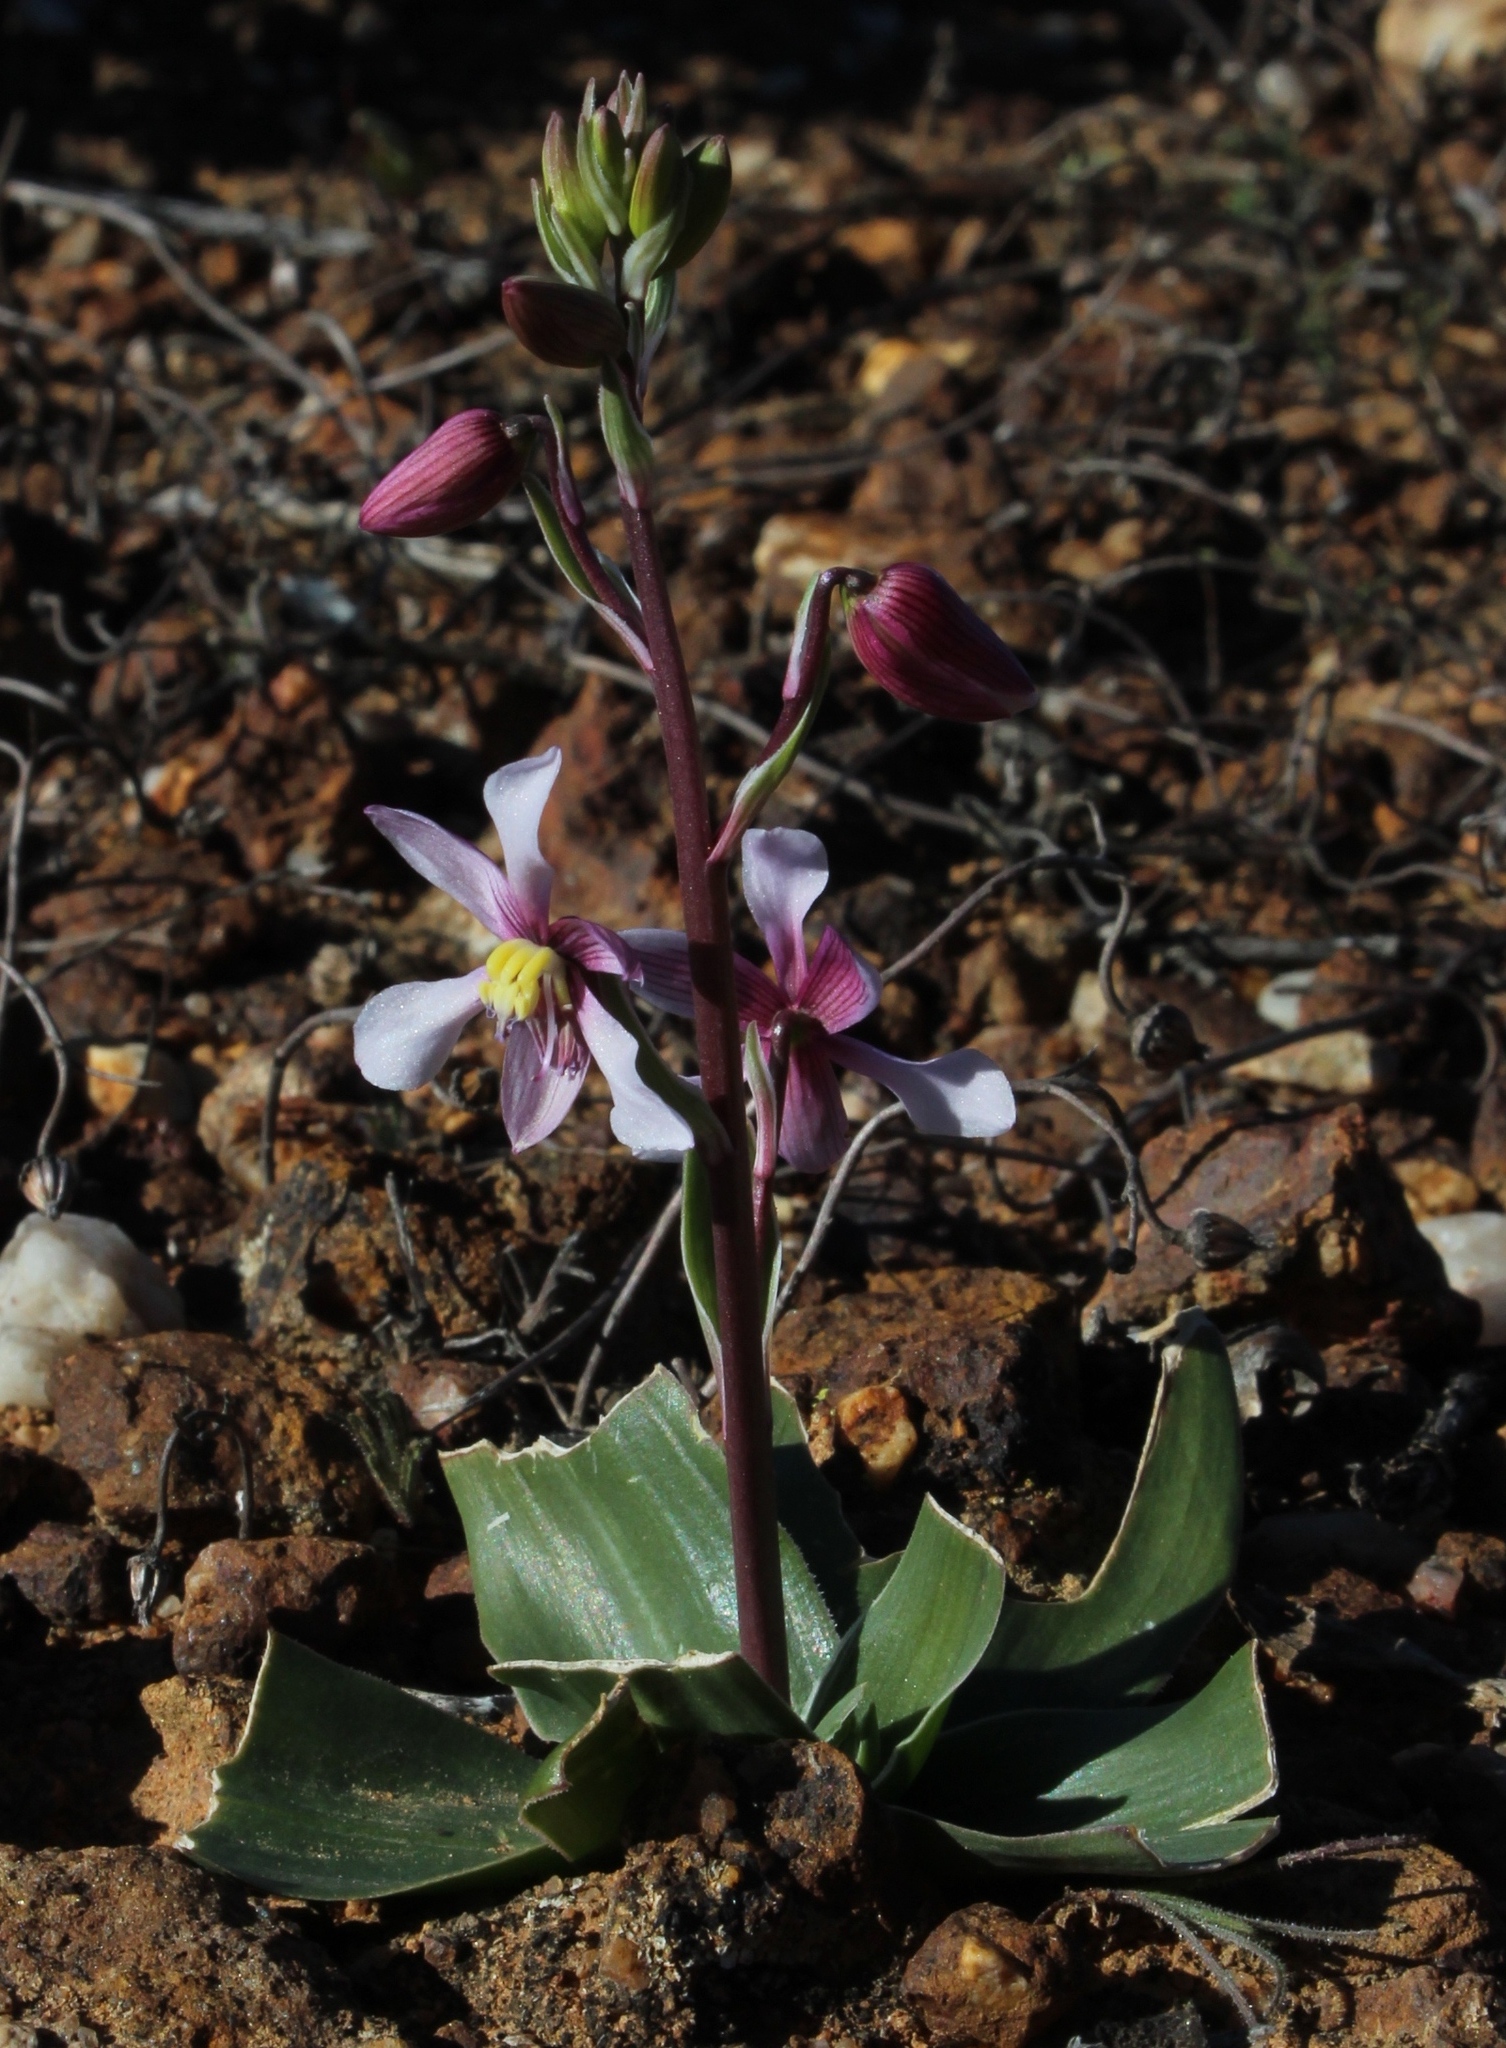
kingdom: Plantae
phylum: Tracheophyta
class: Liliopsida
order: Asparagales
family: Tecophilaeaceae
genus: Cyanella
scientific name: Cyanella orchidiformis
